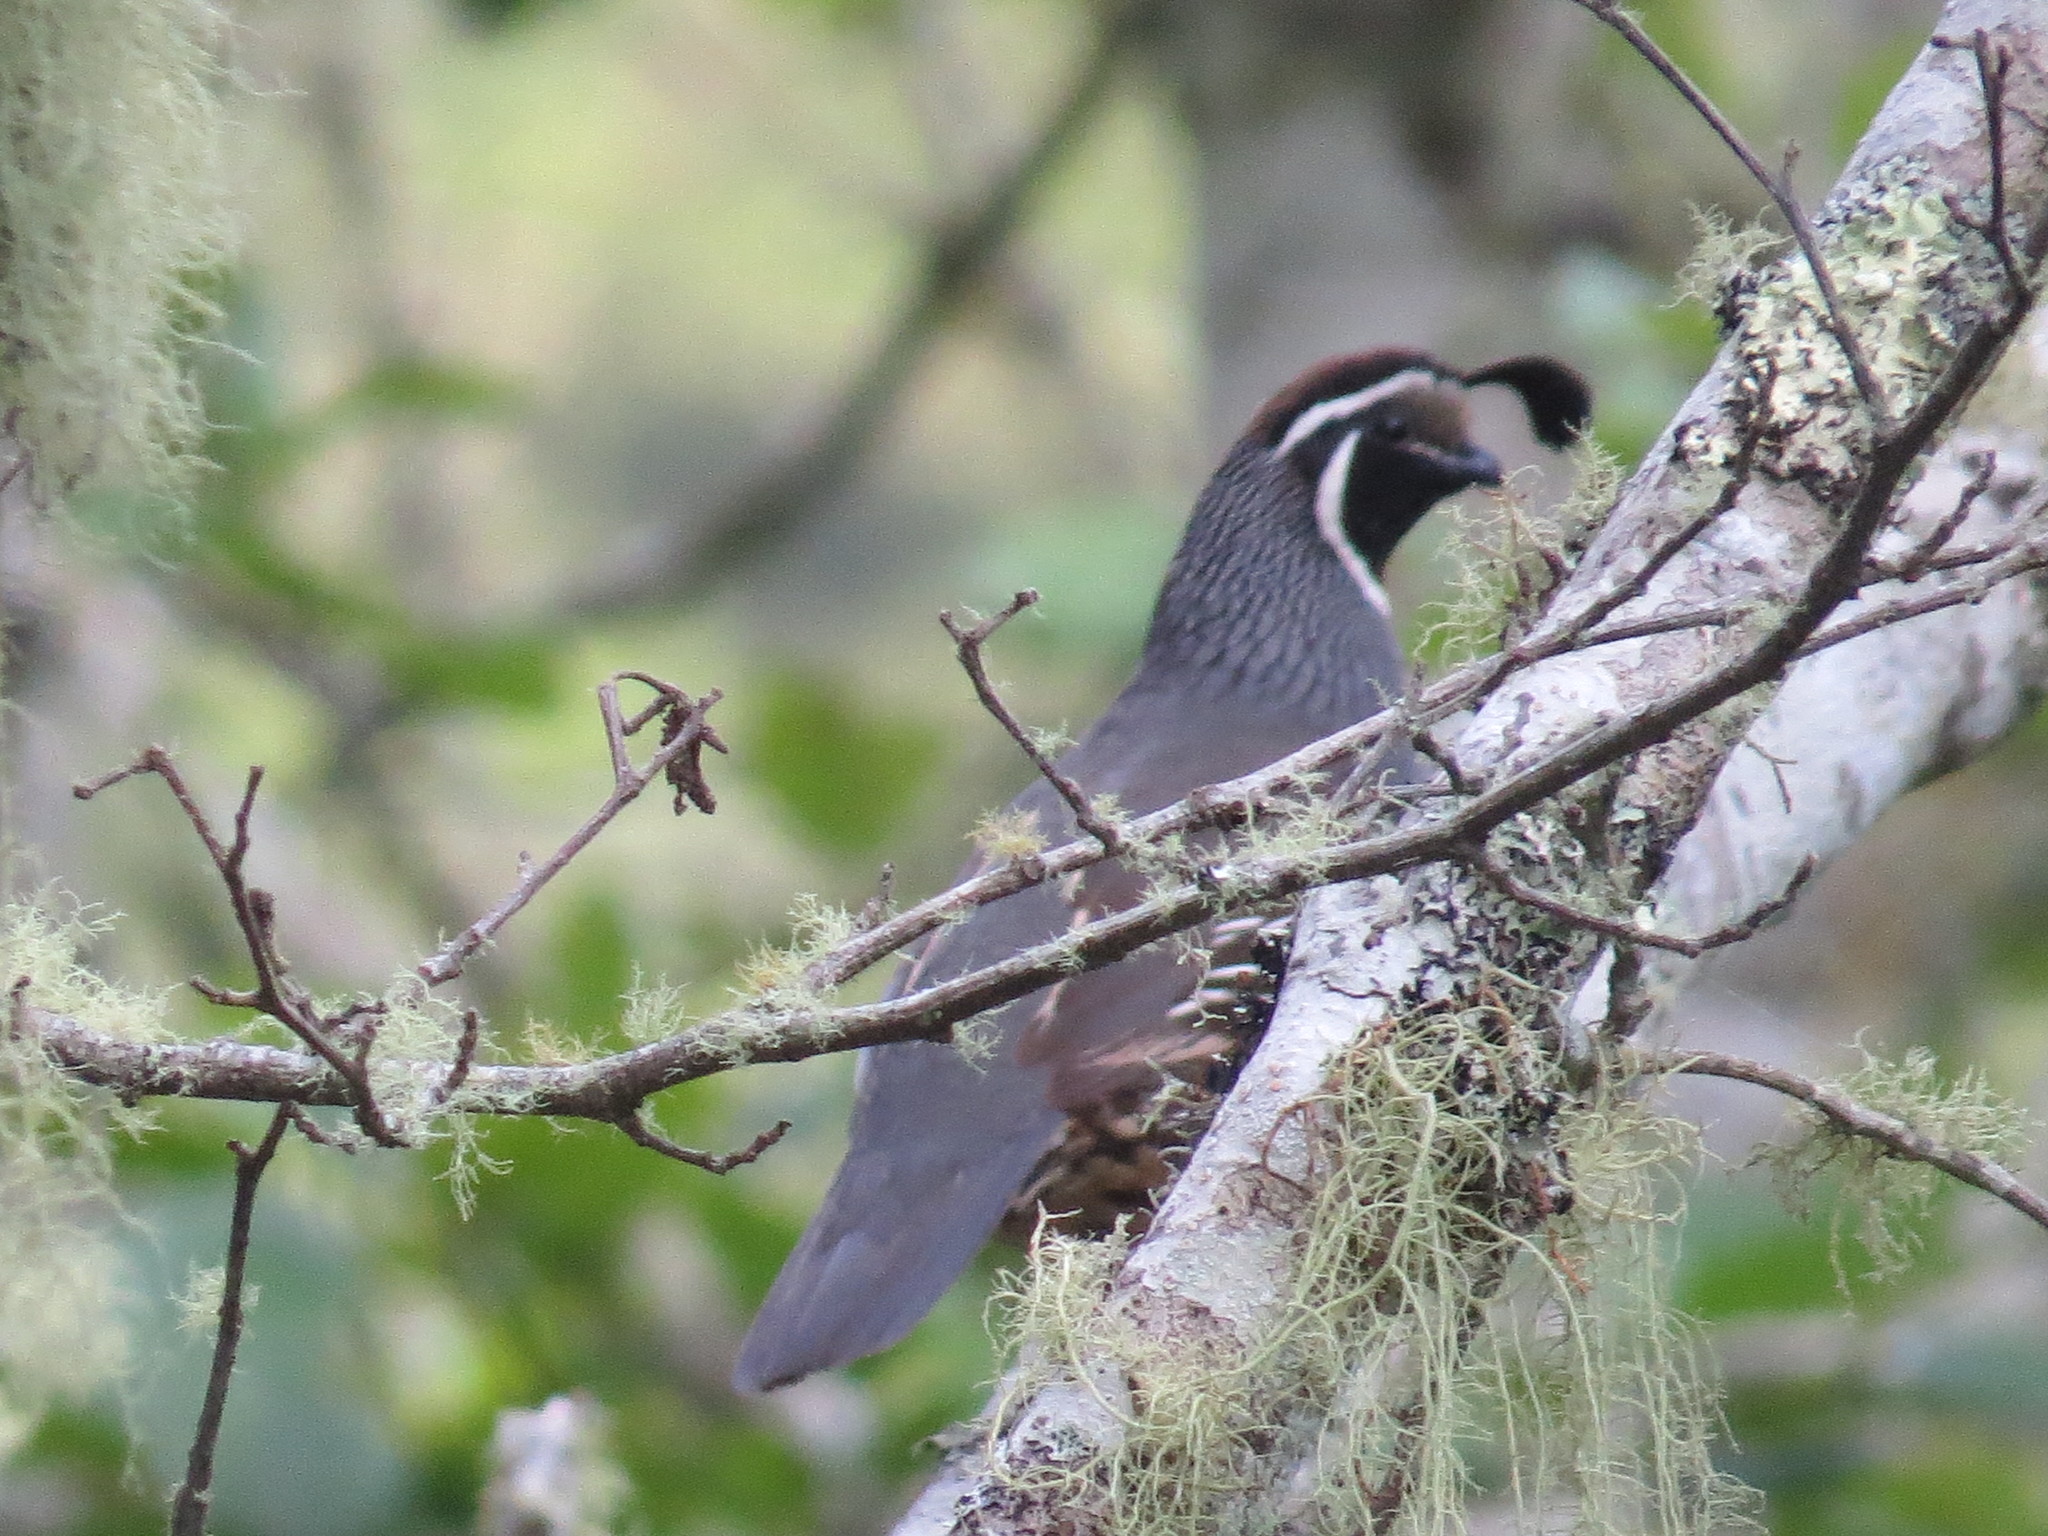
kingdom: Animalia
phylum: Chordata
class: Aves
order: Galliformes
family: Odontophoridae
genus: Callipepla
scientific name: Callipepla californica
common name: California quail
